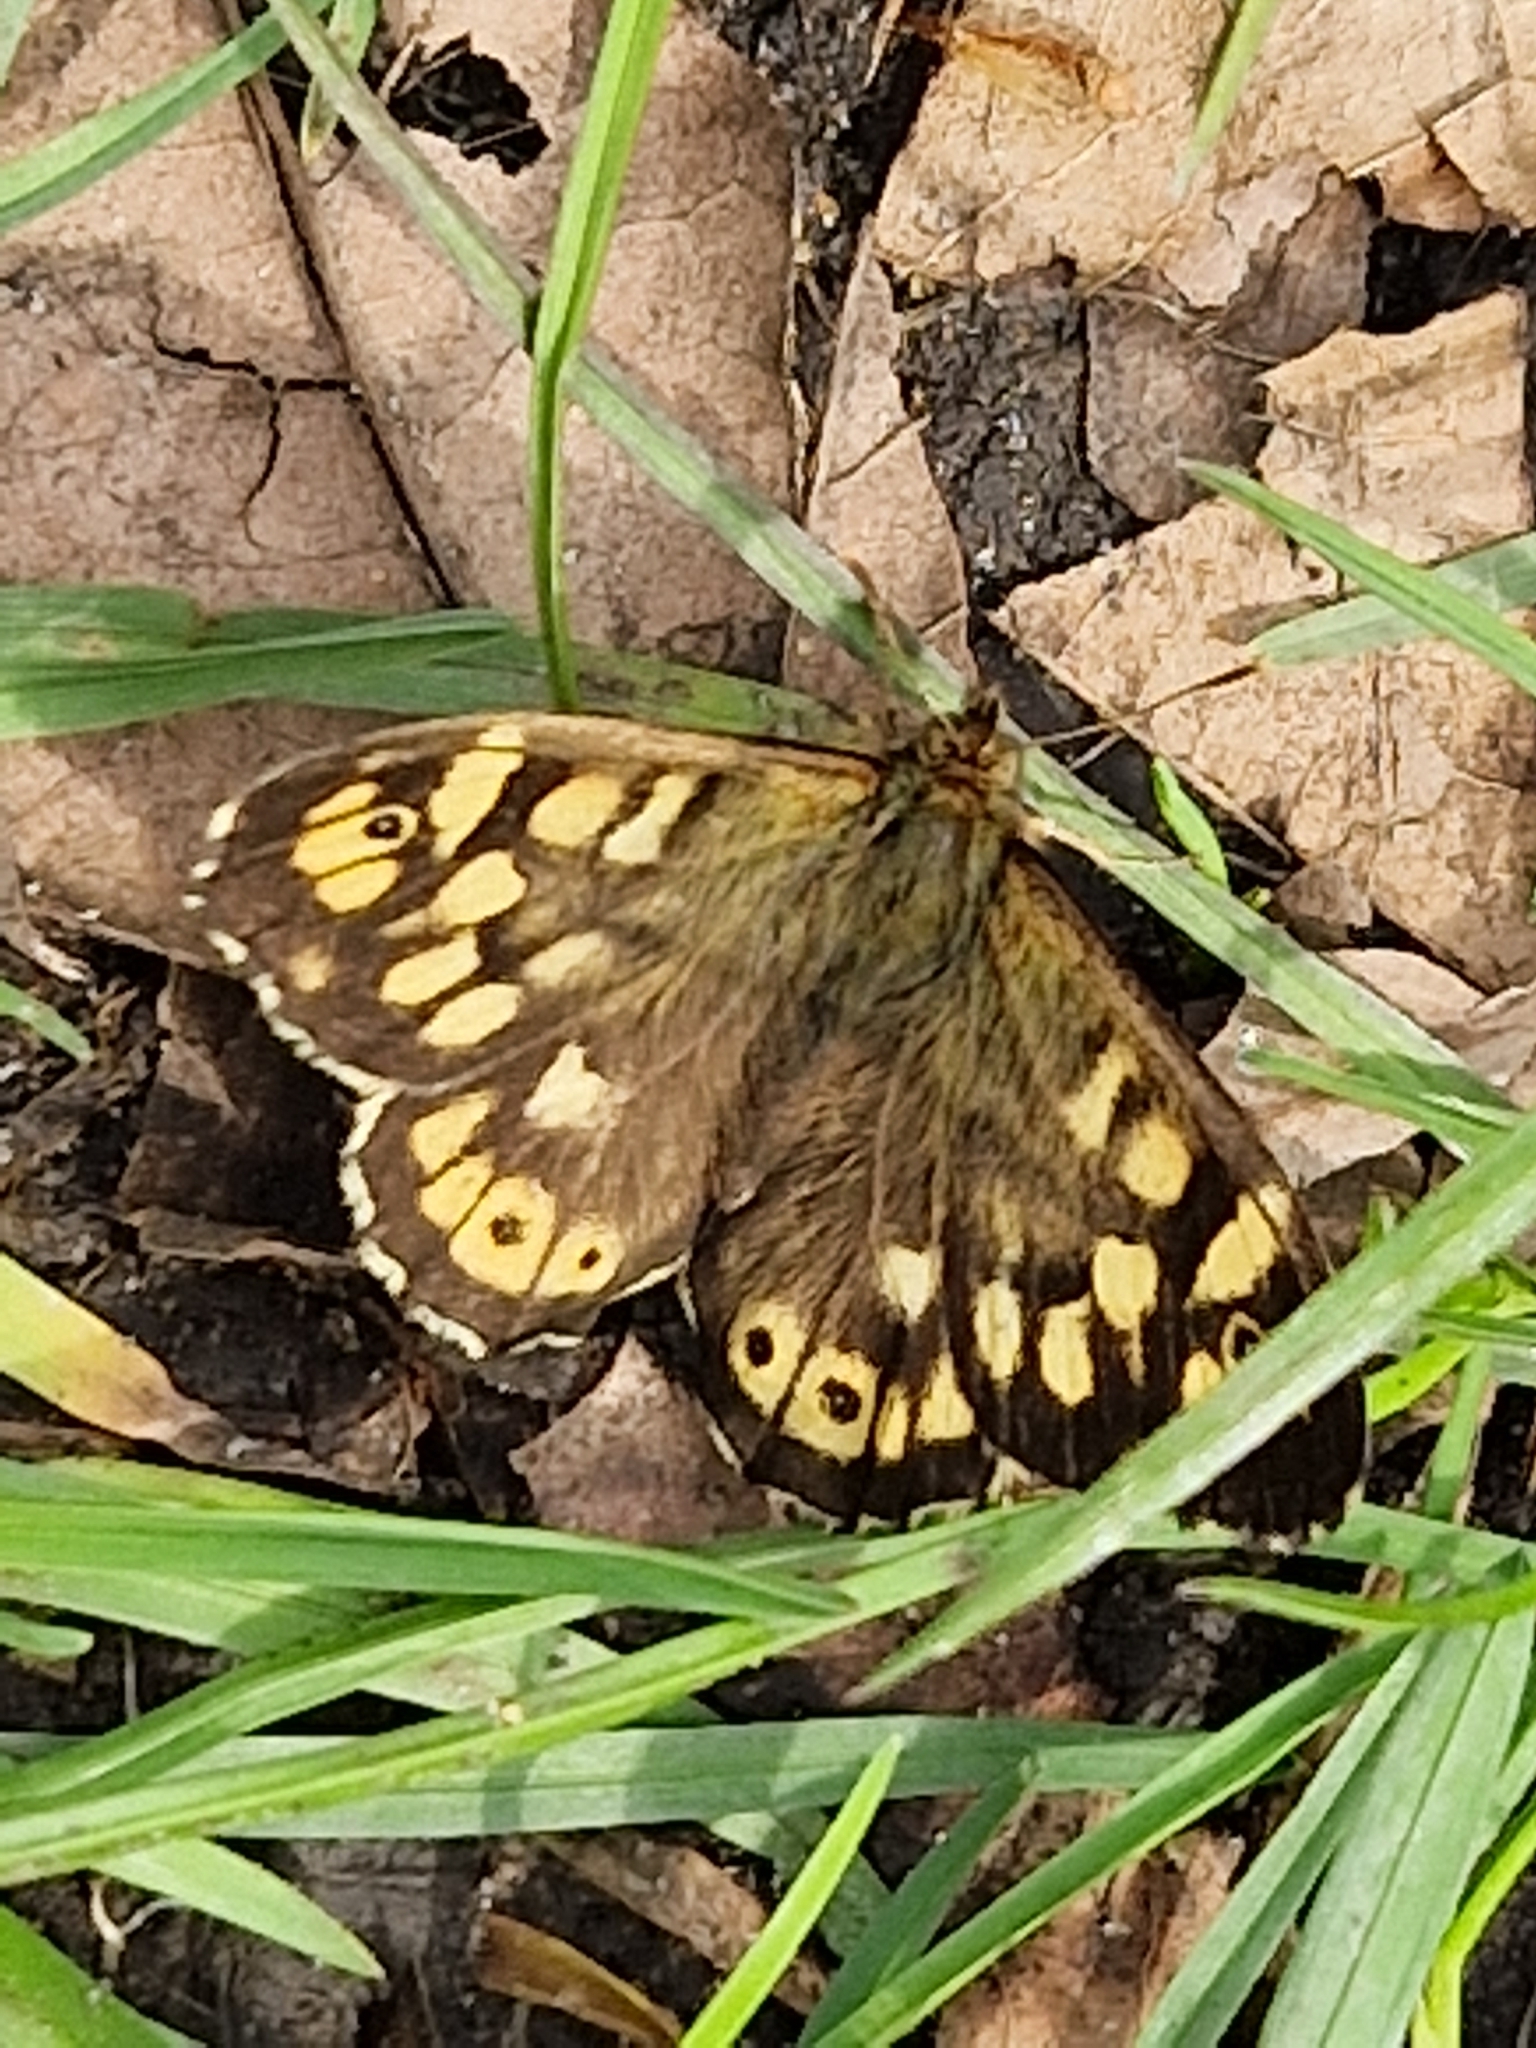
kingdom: Animalia
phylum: Arthropoda
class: Insecta
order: Lepidoptera
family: Nymphalidae
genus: Pararge
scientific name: Pararge aegeria
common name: Speckled wood
